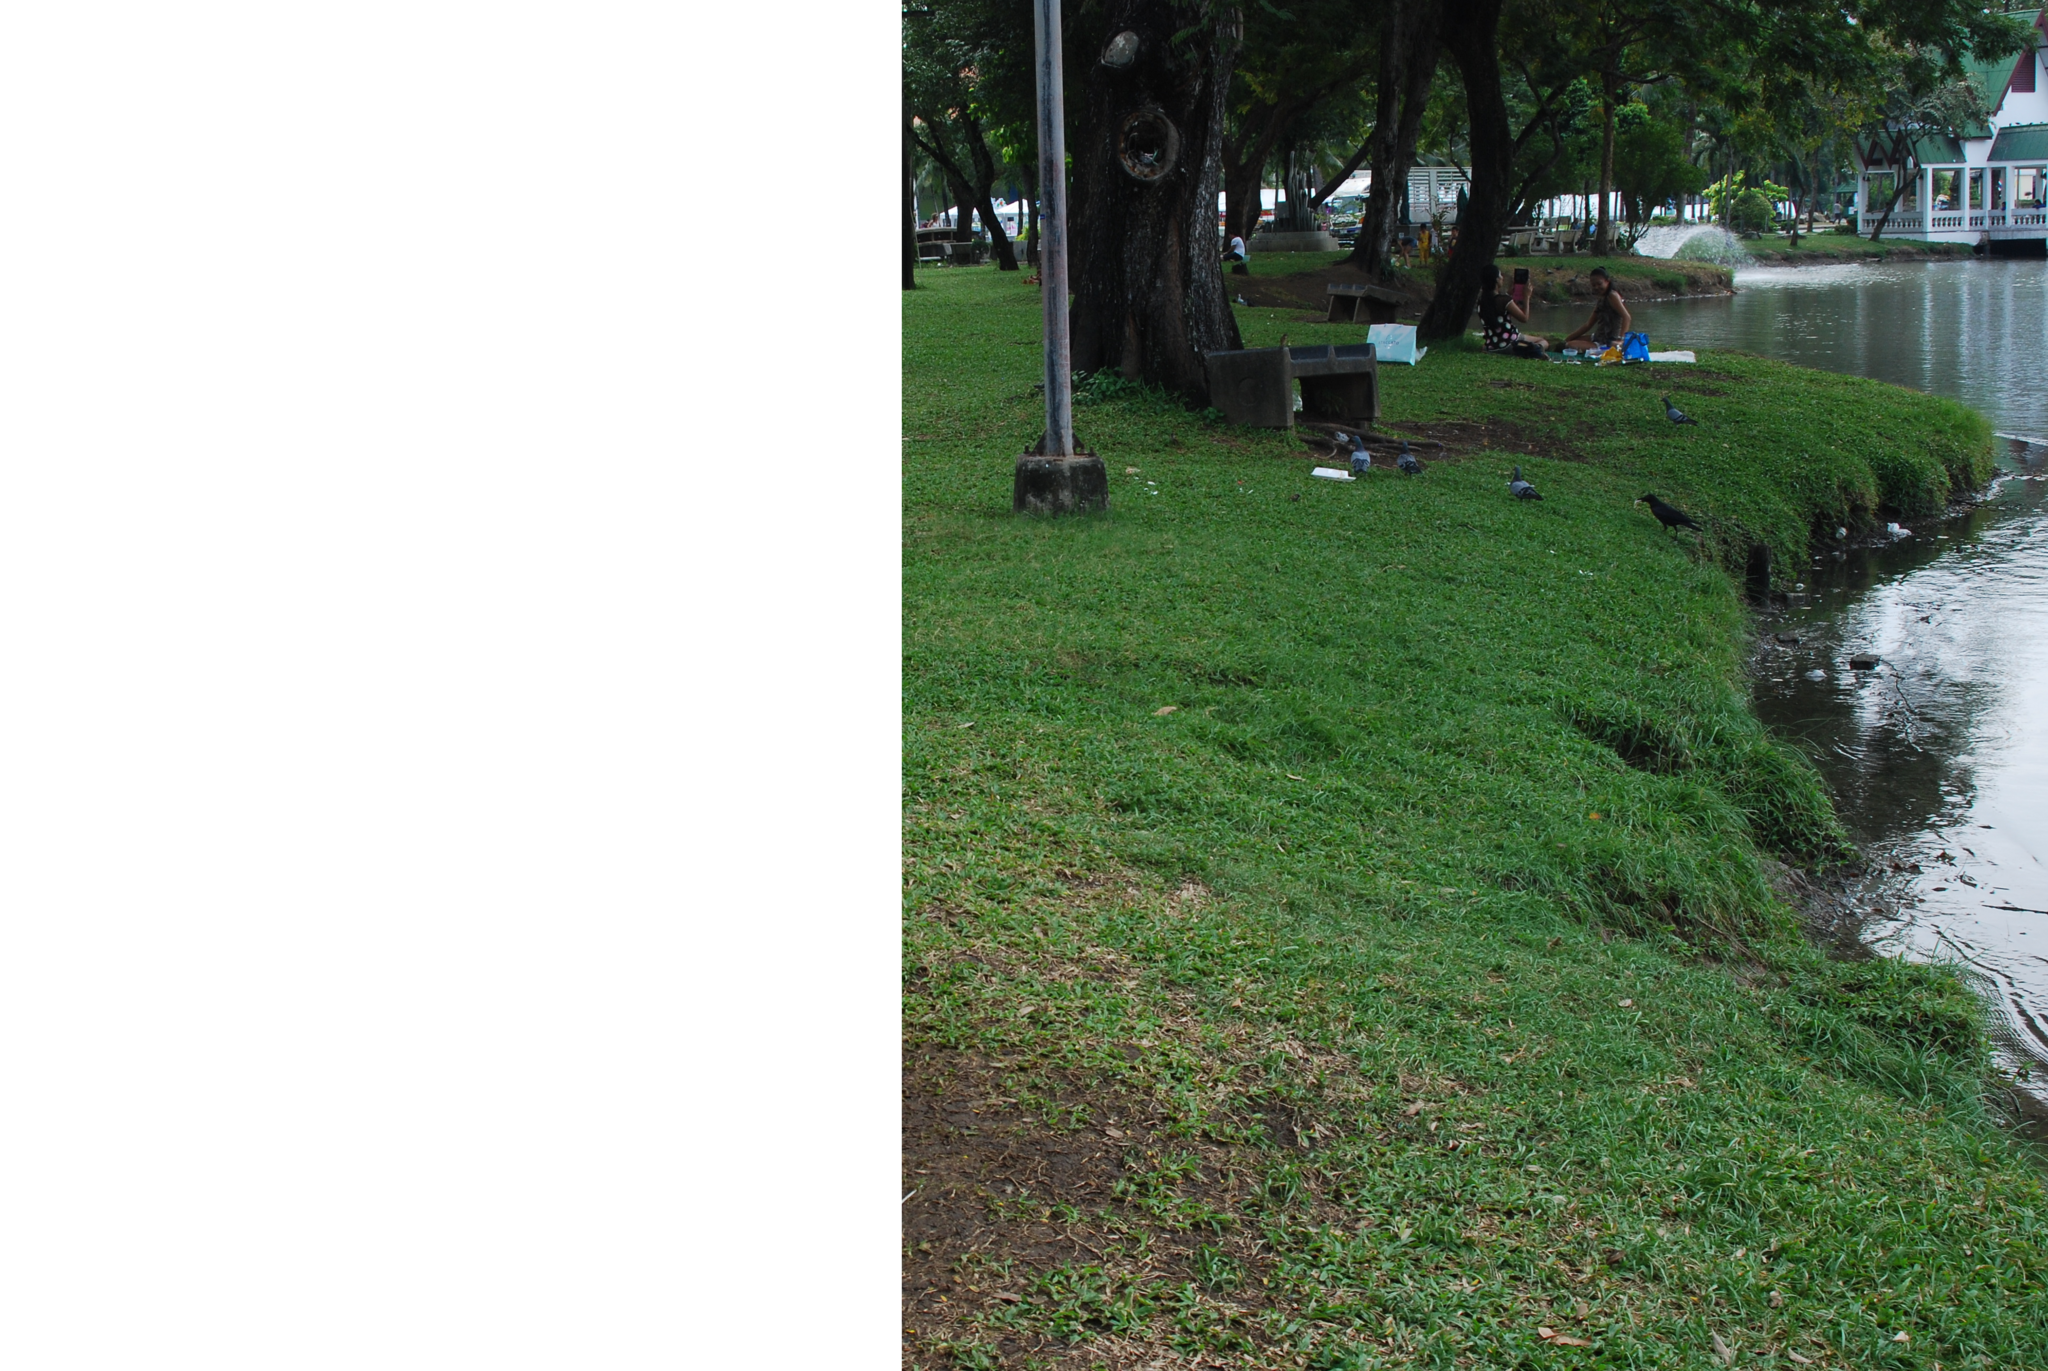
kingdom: Animalia
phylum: Chordata
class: Aves
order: Passeriformes
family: Corvidae
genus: Corvus
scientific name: Corvus macrorhynchos
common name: Large-billed crow
